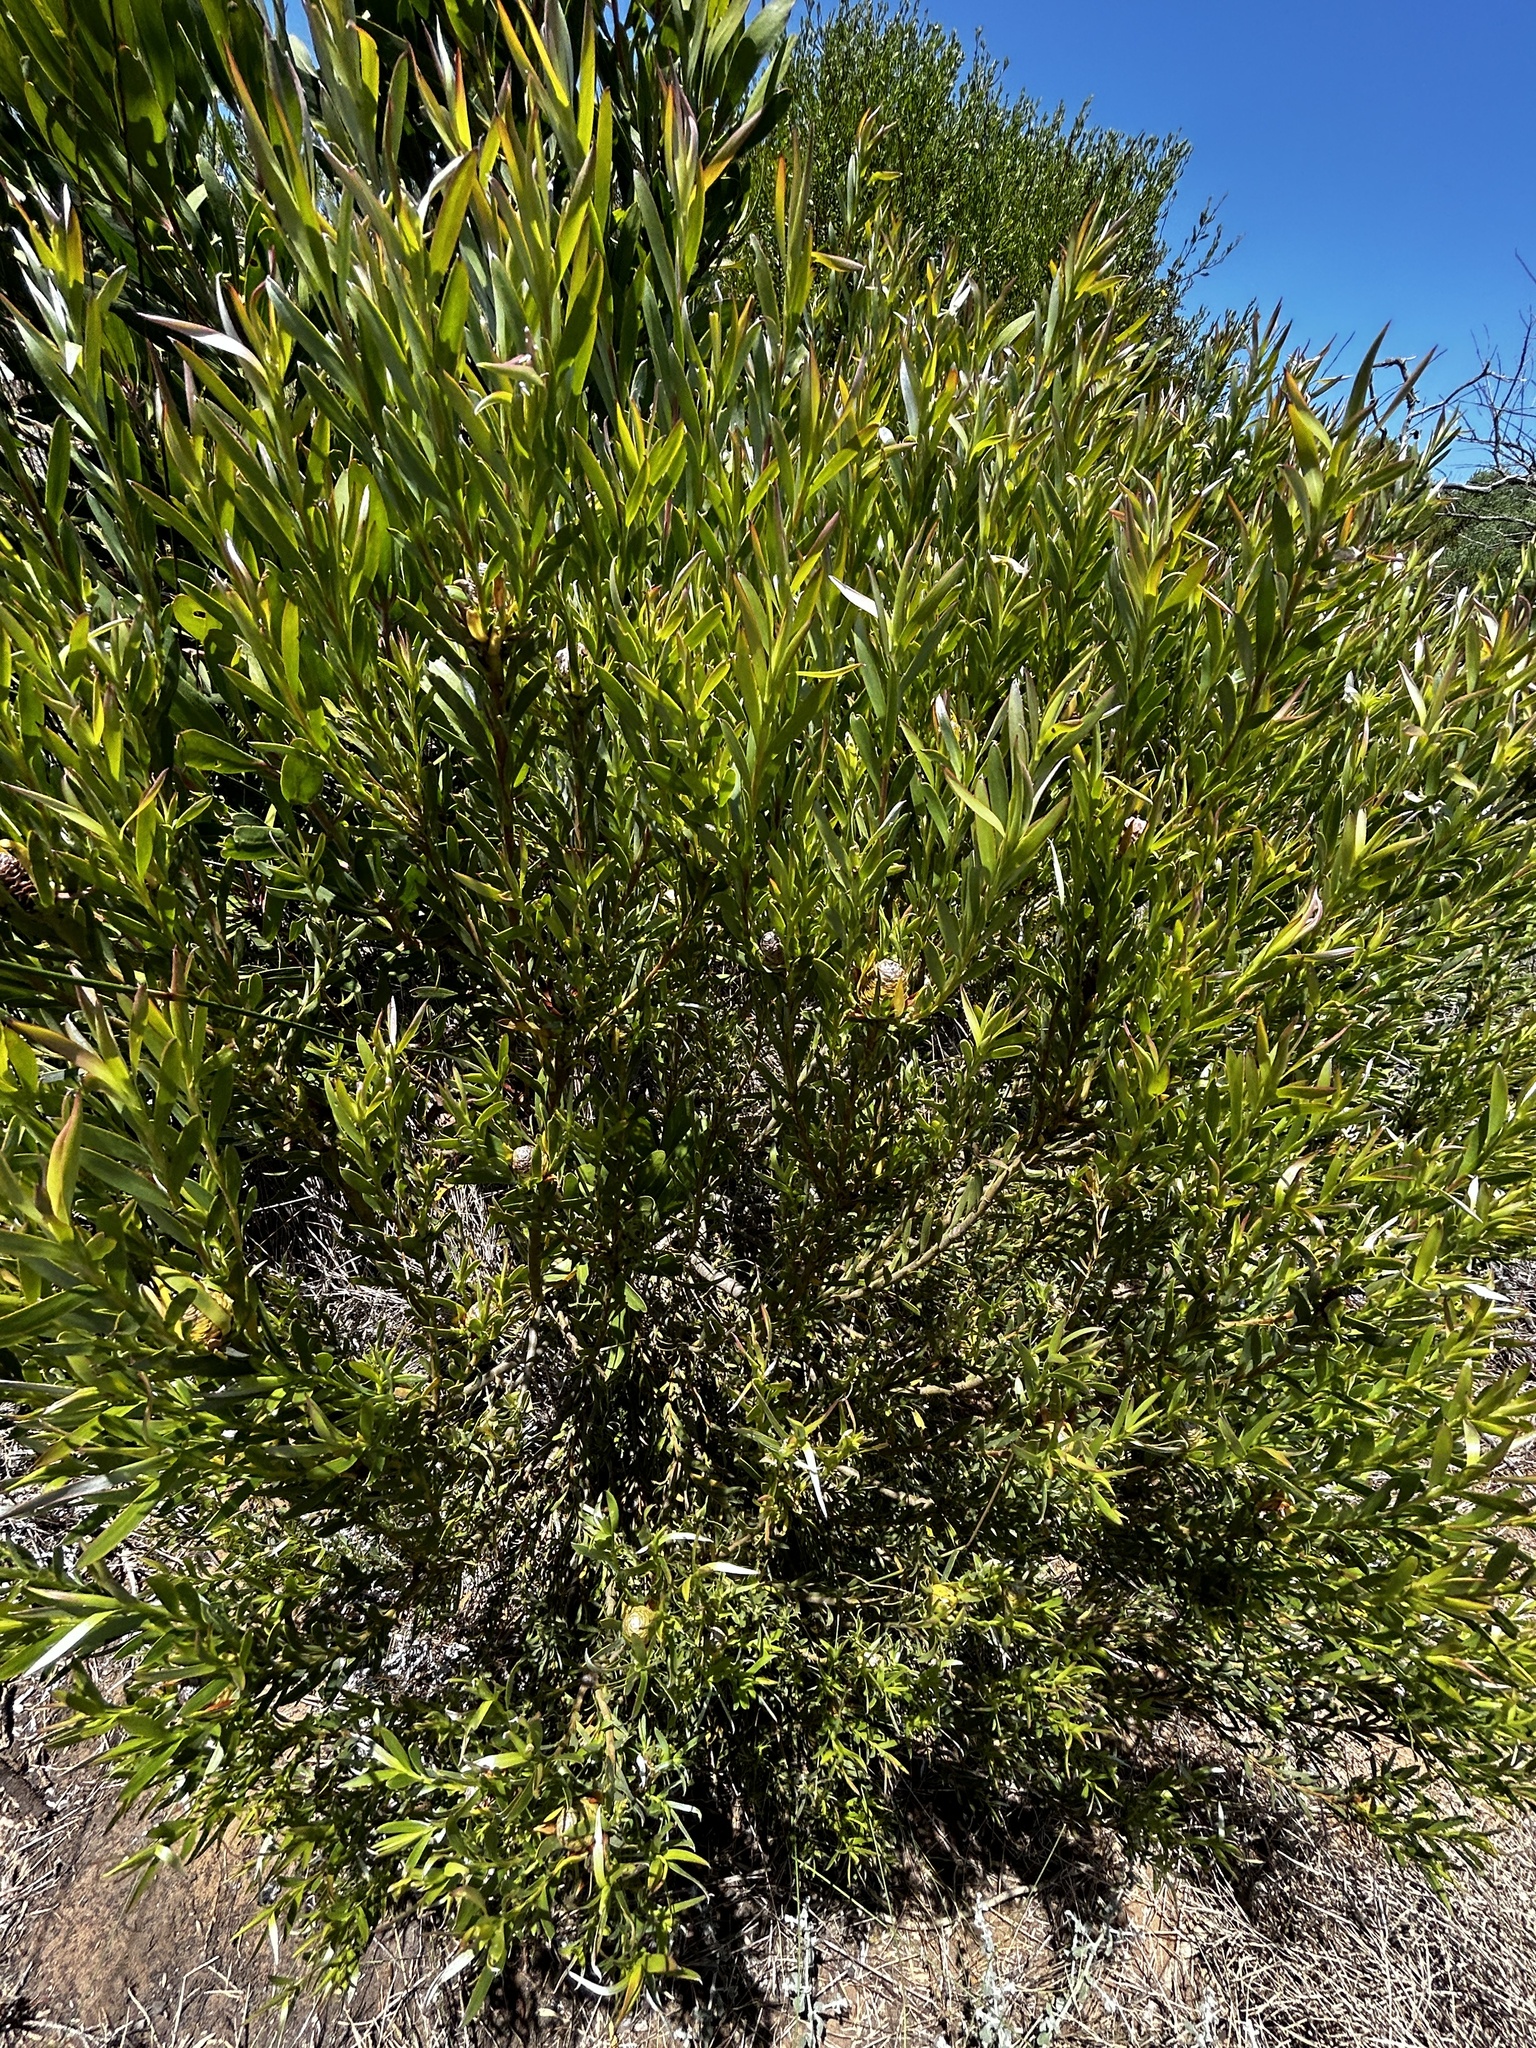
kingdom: Plantae
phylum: Tracheophyta
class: Magnoliopsida
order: Proteales
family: Proteaceae
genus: Leucadendron
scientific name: Leucadendron meridianum
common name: Limestone conebush
